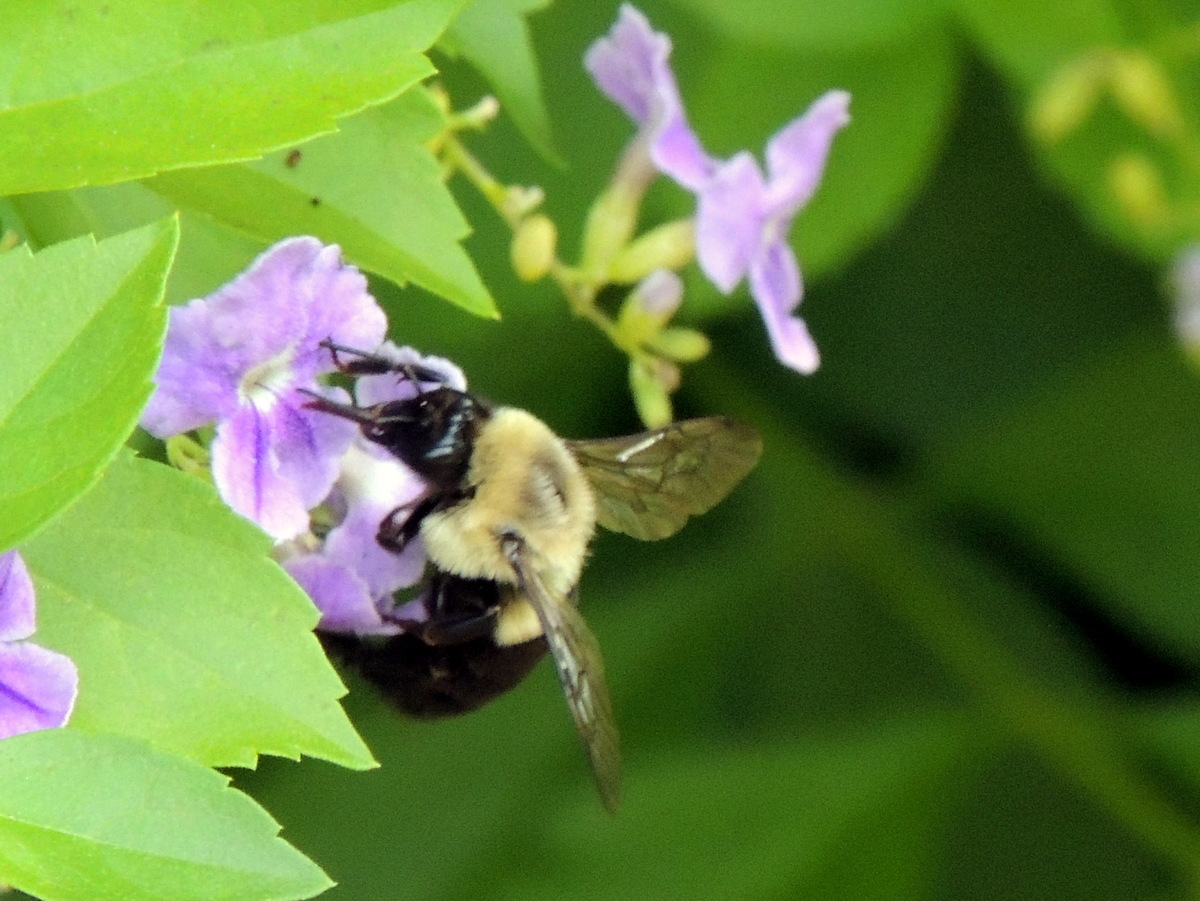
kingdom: Animalia
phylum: Arthropoda
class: Insecta
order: Hymenoptera
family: Apidae
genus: Bombus
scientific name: Bombus pensylvanicus
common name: Bumble bee
